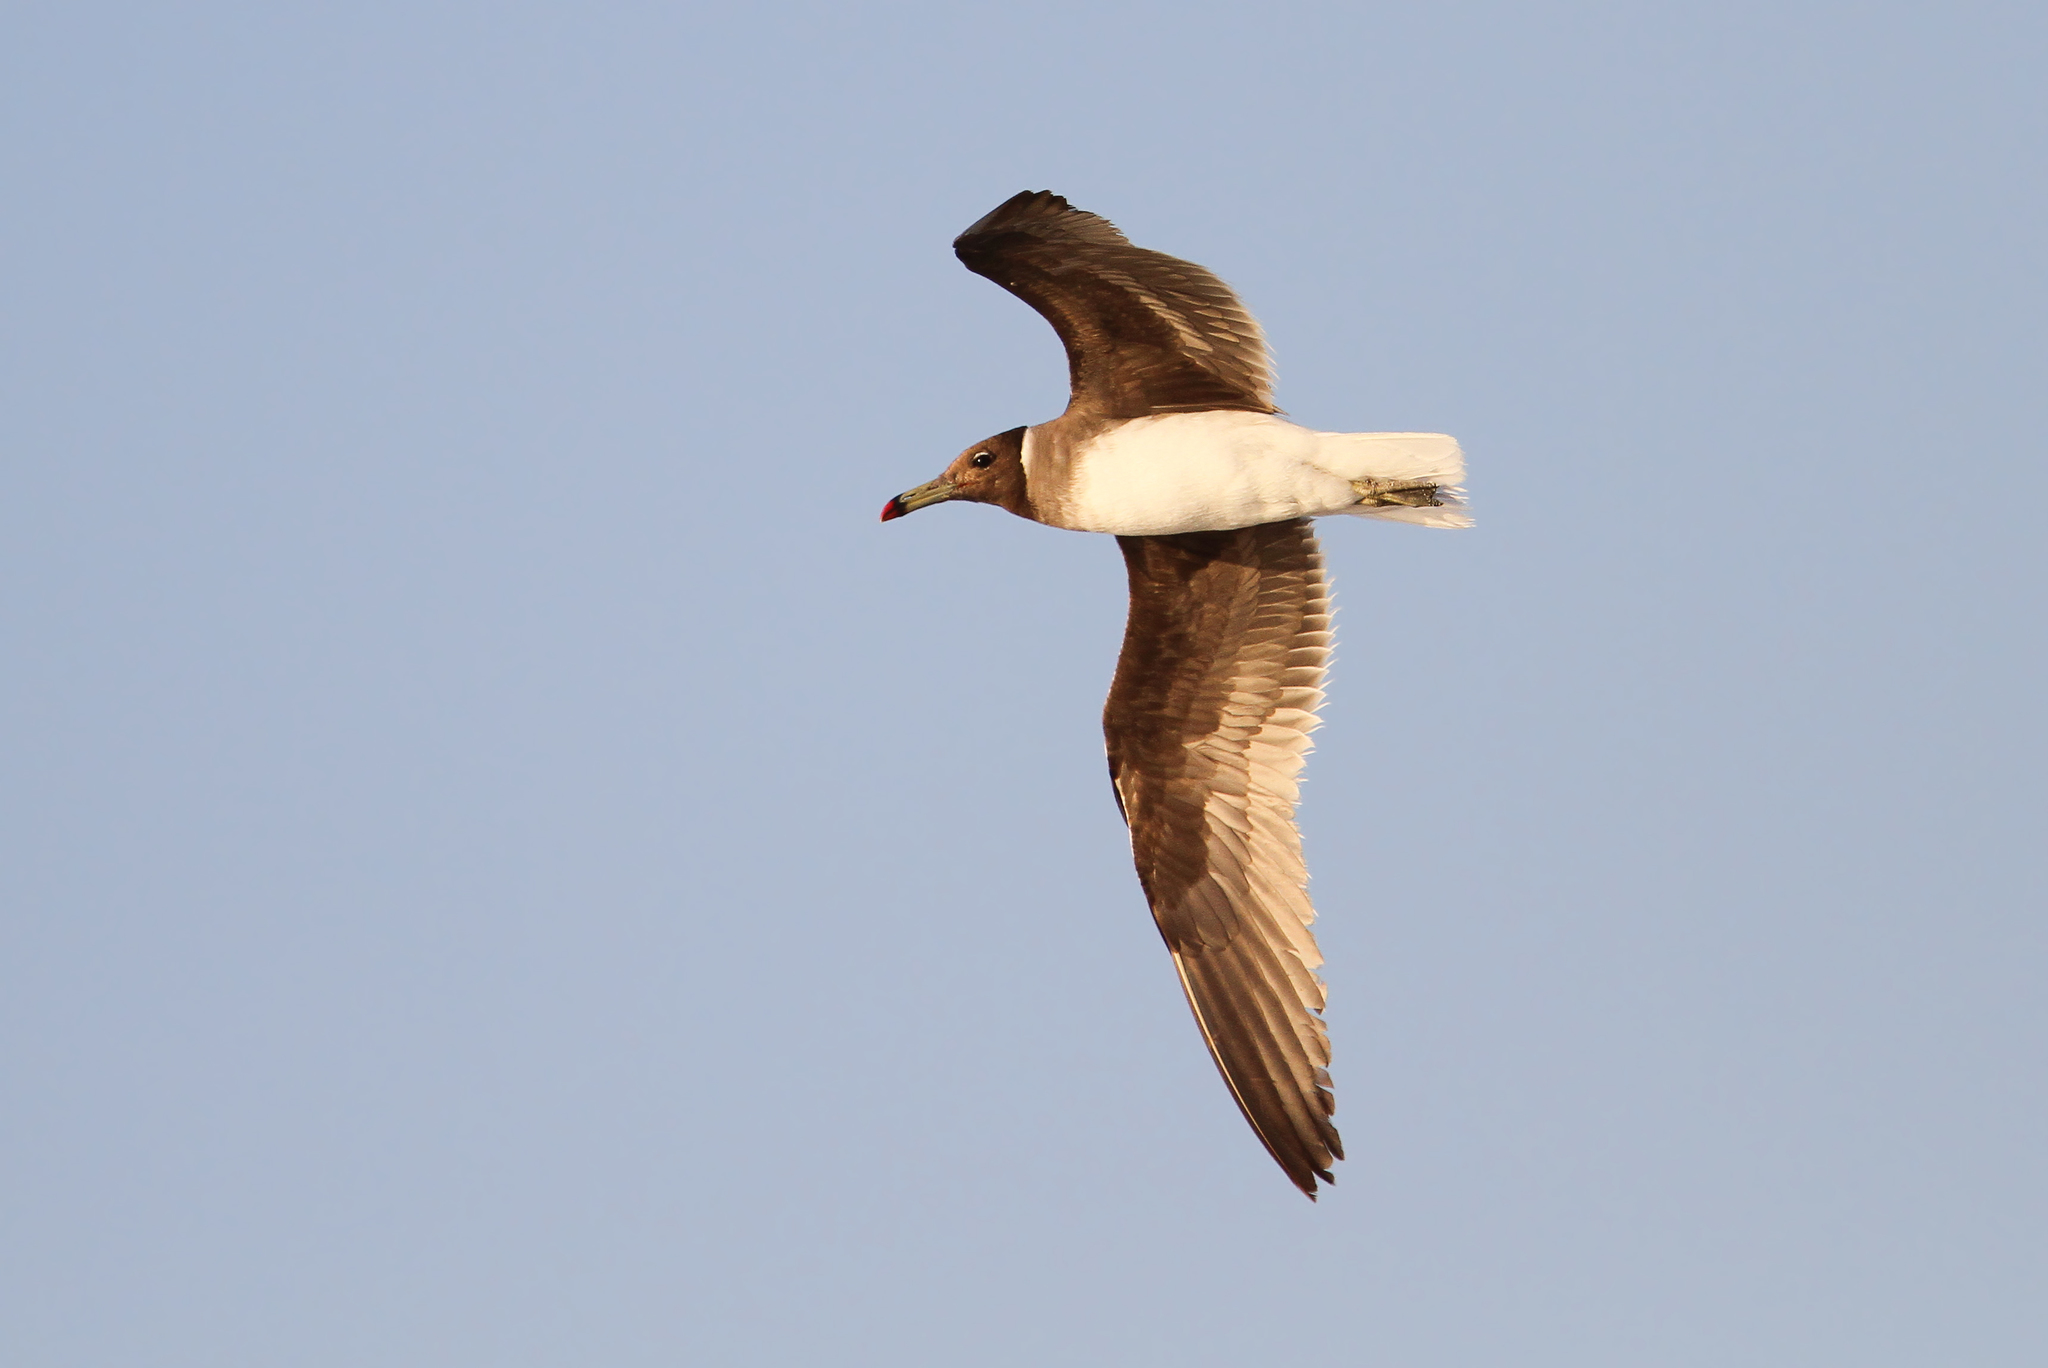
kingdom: Animalia
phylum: Chordata
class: Aves
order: Charadriiformes
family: Laridae
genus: Ichthyaetus
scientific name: Ichthyaetus hemprichii
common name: Sooty gull
